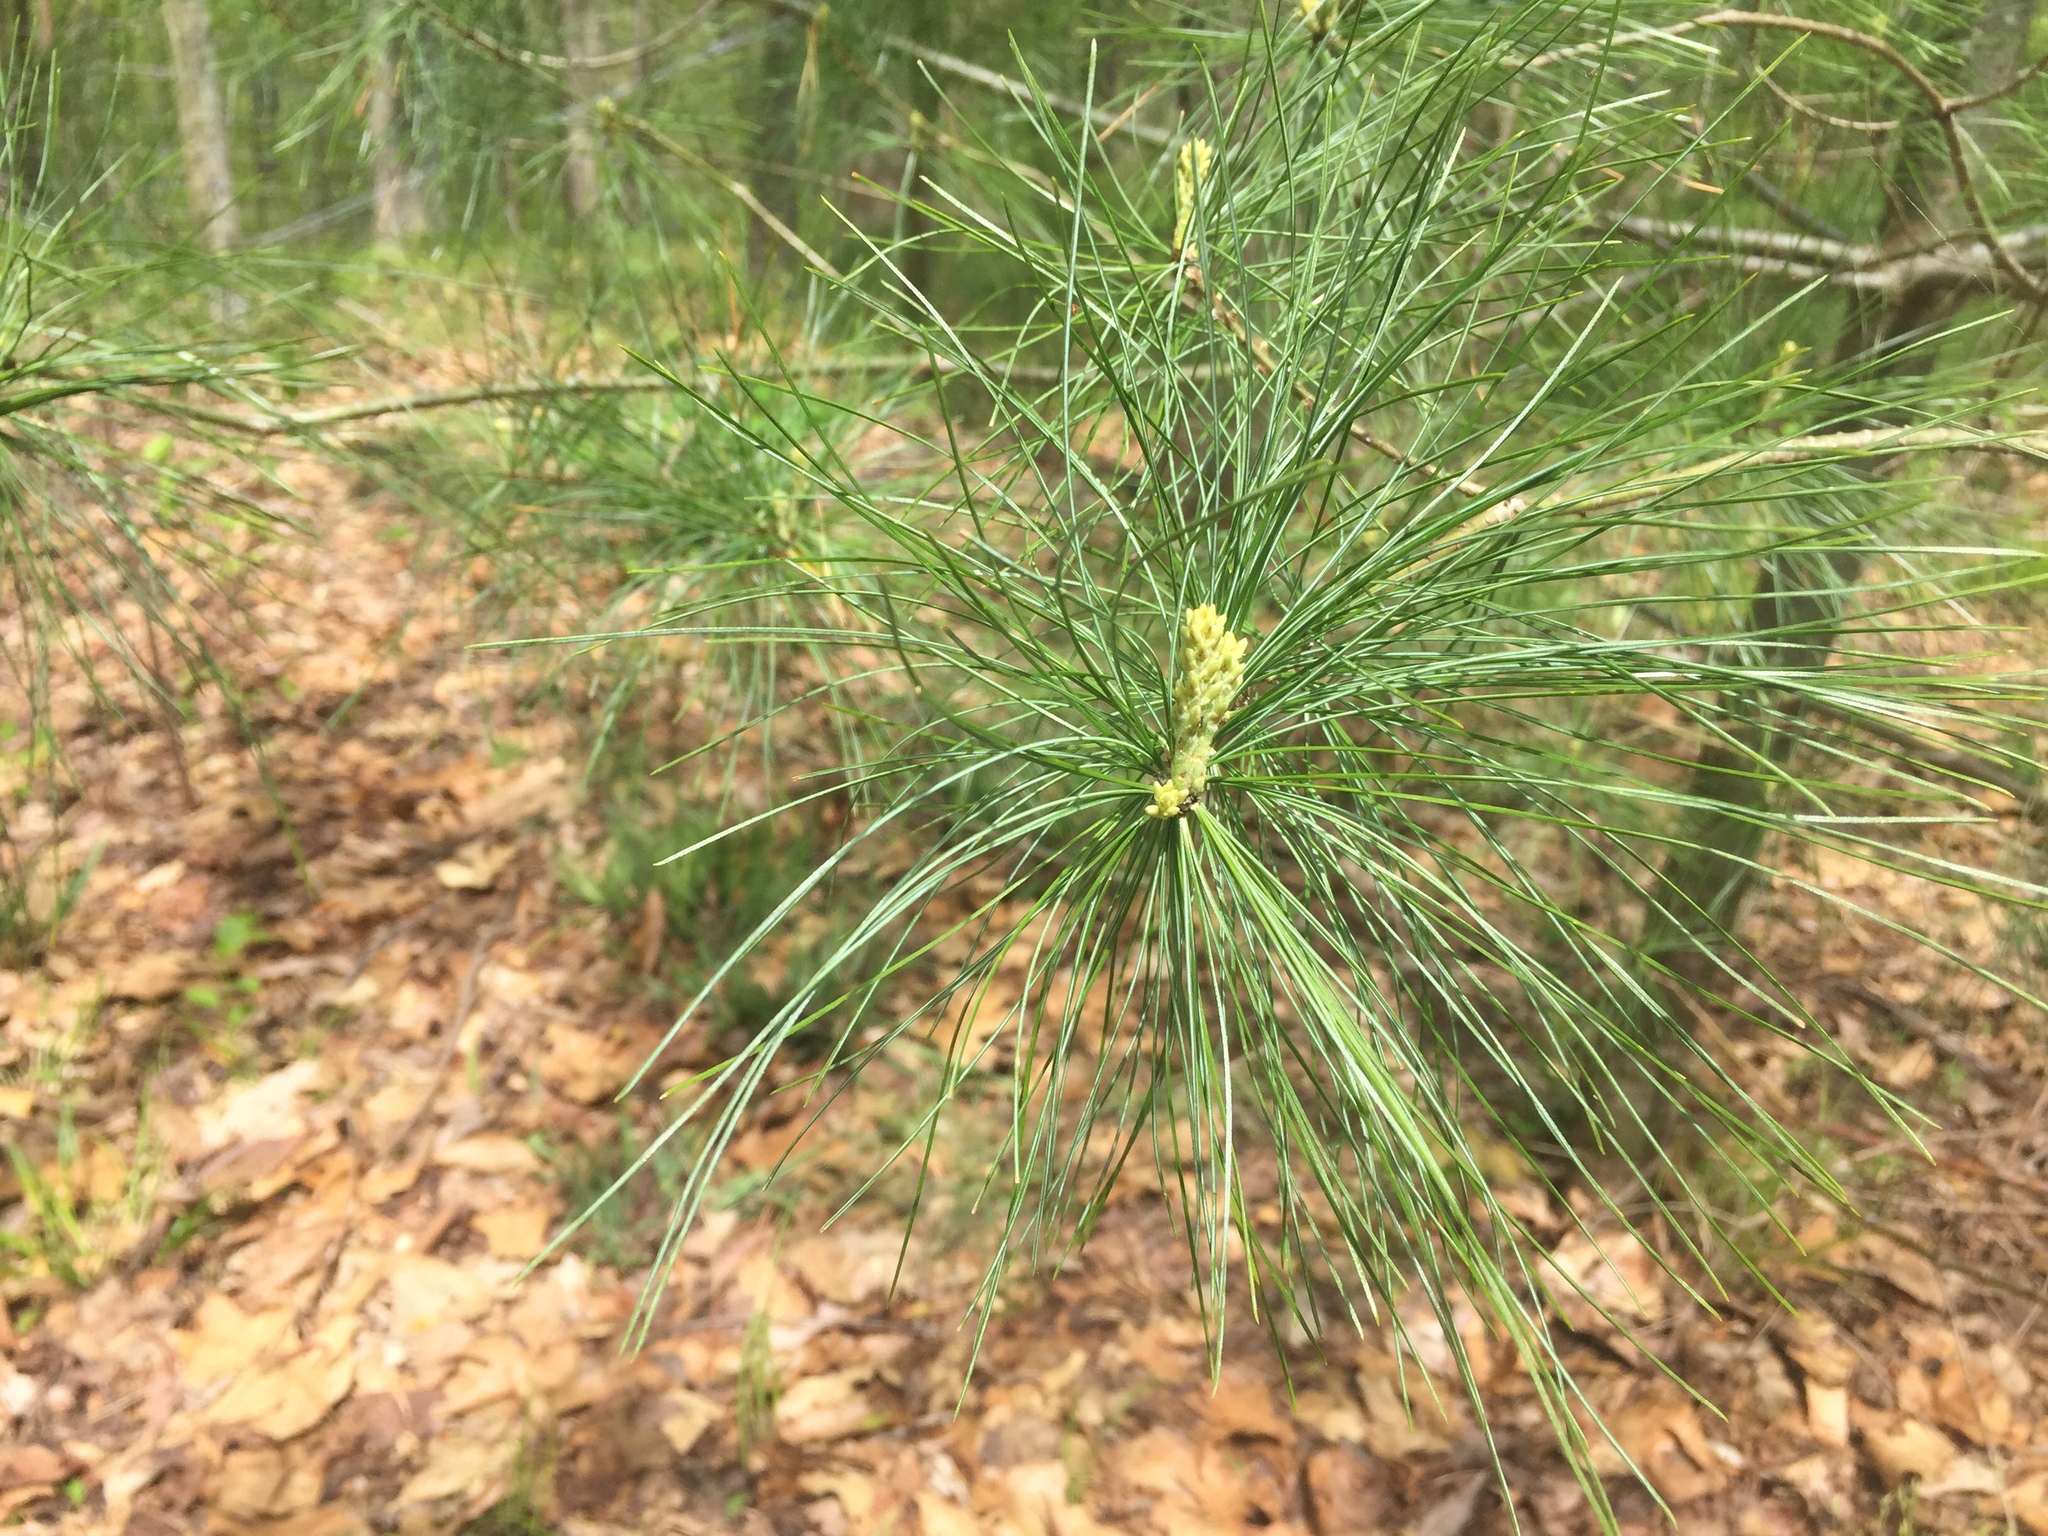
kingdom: Plantae
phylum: Tracheophyta
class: Pinopsida
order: Pinales
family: Pinaceae
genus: Pinus
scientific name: Pinus strobus
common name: Weymouth pine
